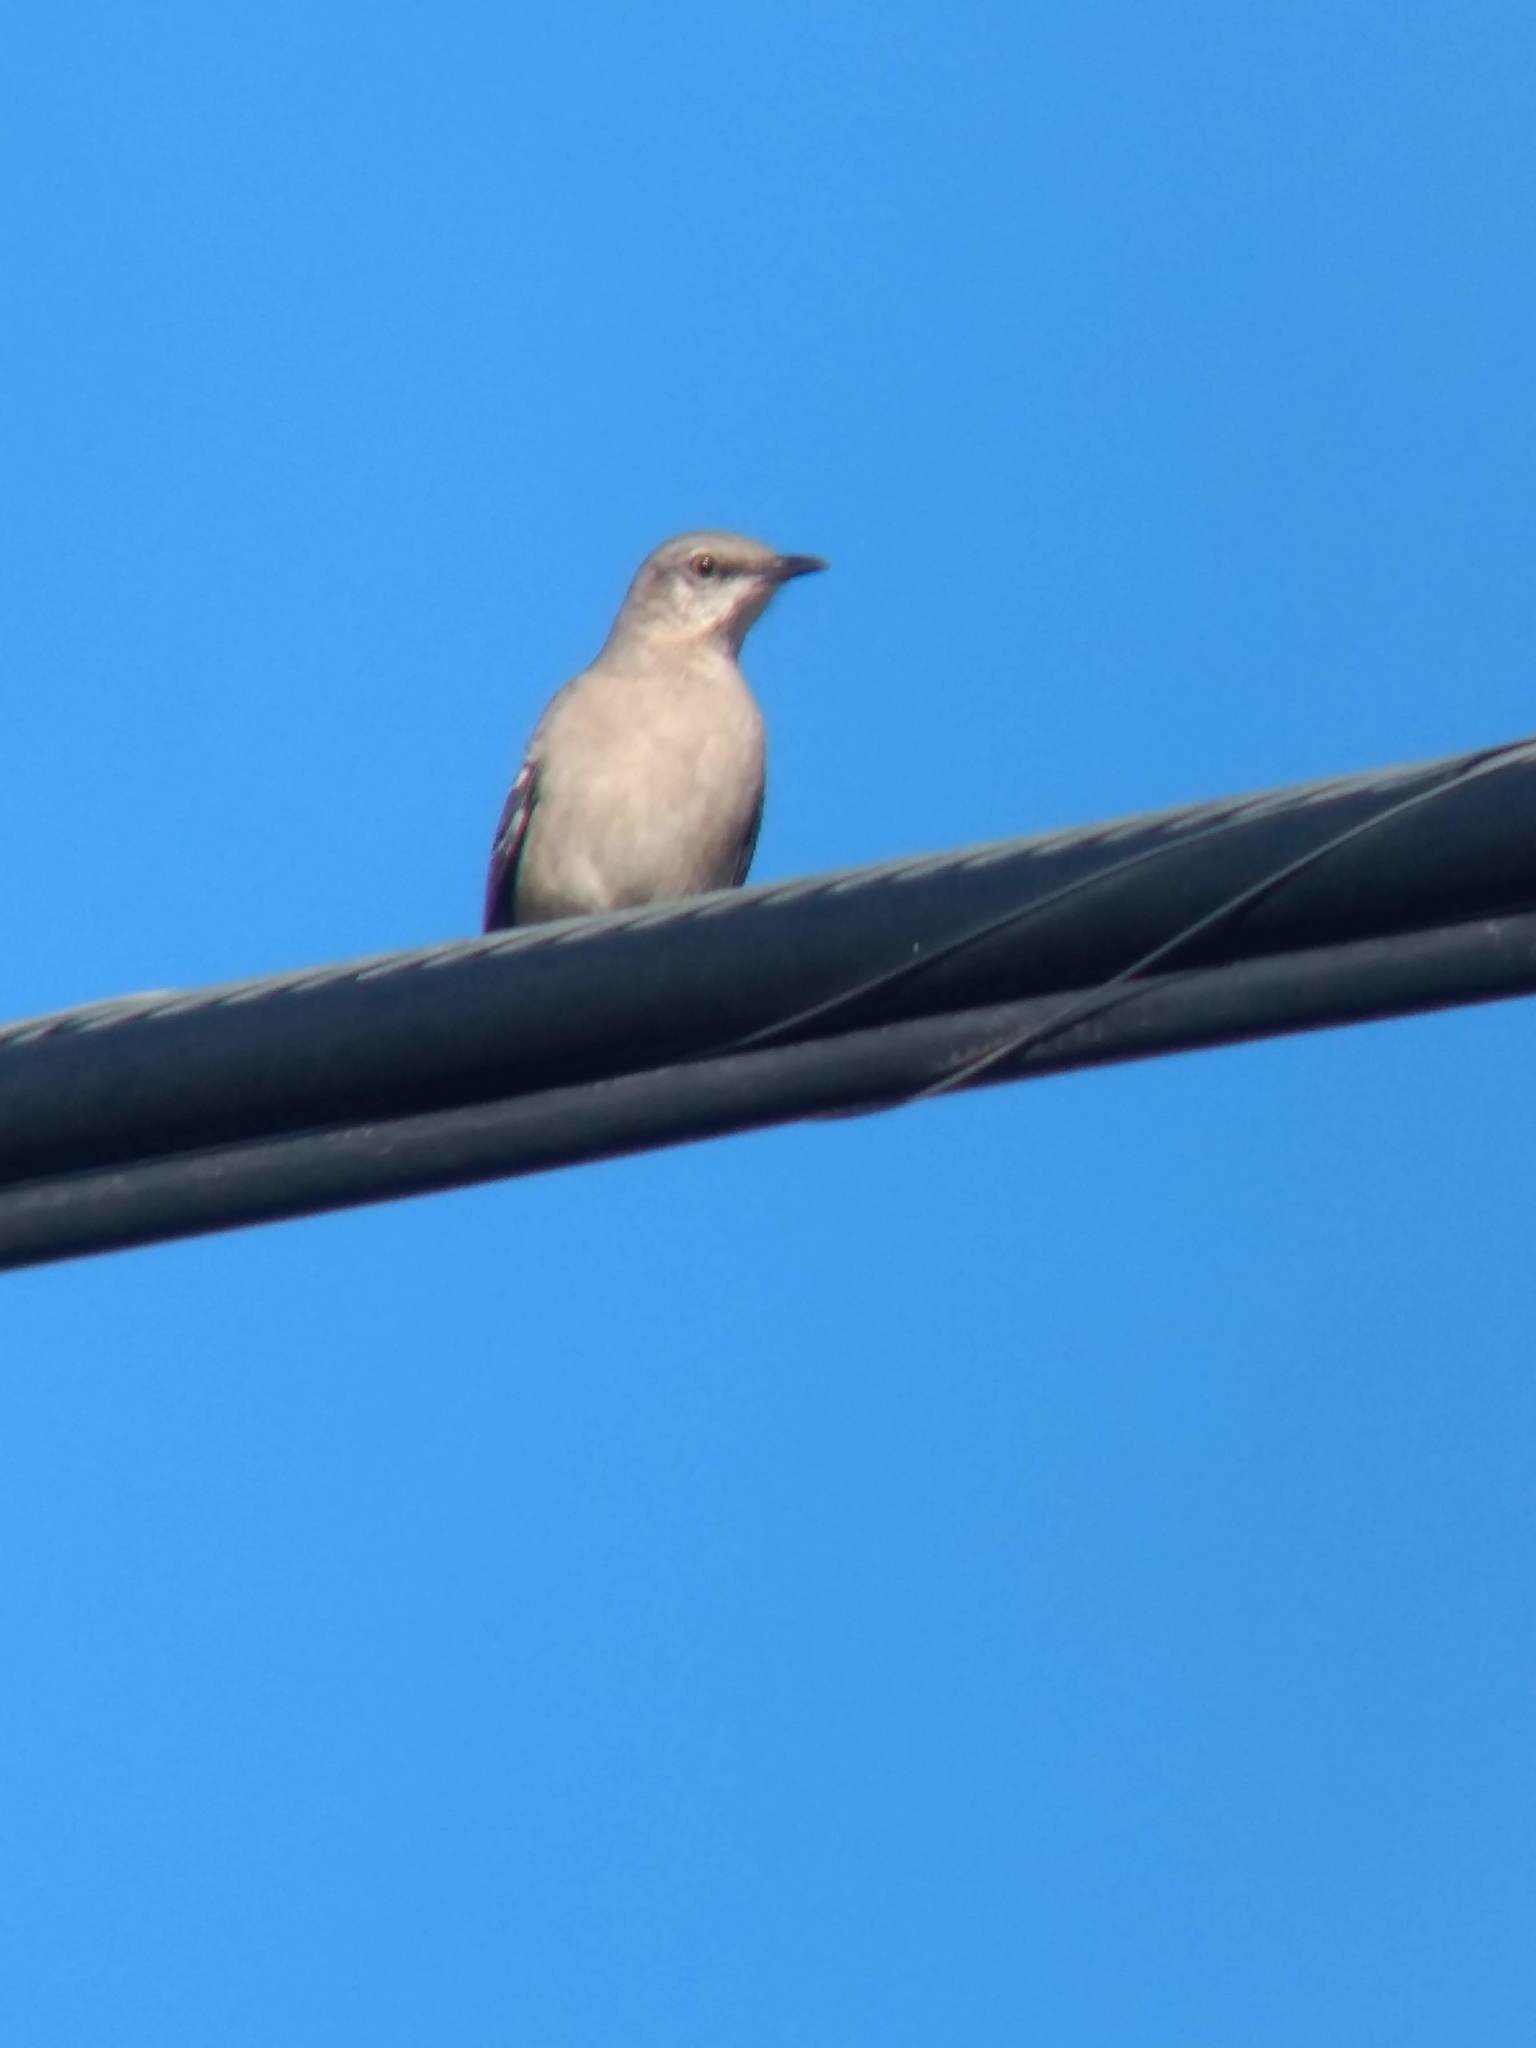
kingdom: Animalia
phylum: Chordata
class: Aves
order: Passeriformes
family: Mimidae
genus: Mimus
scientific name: Mimus polyglottos
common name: Northern mockingbird
